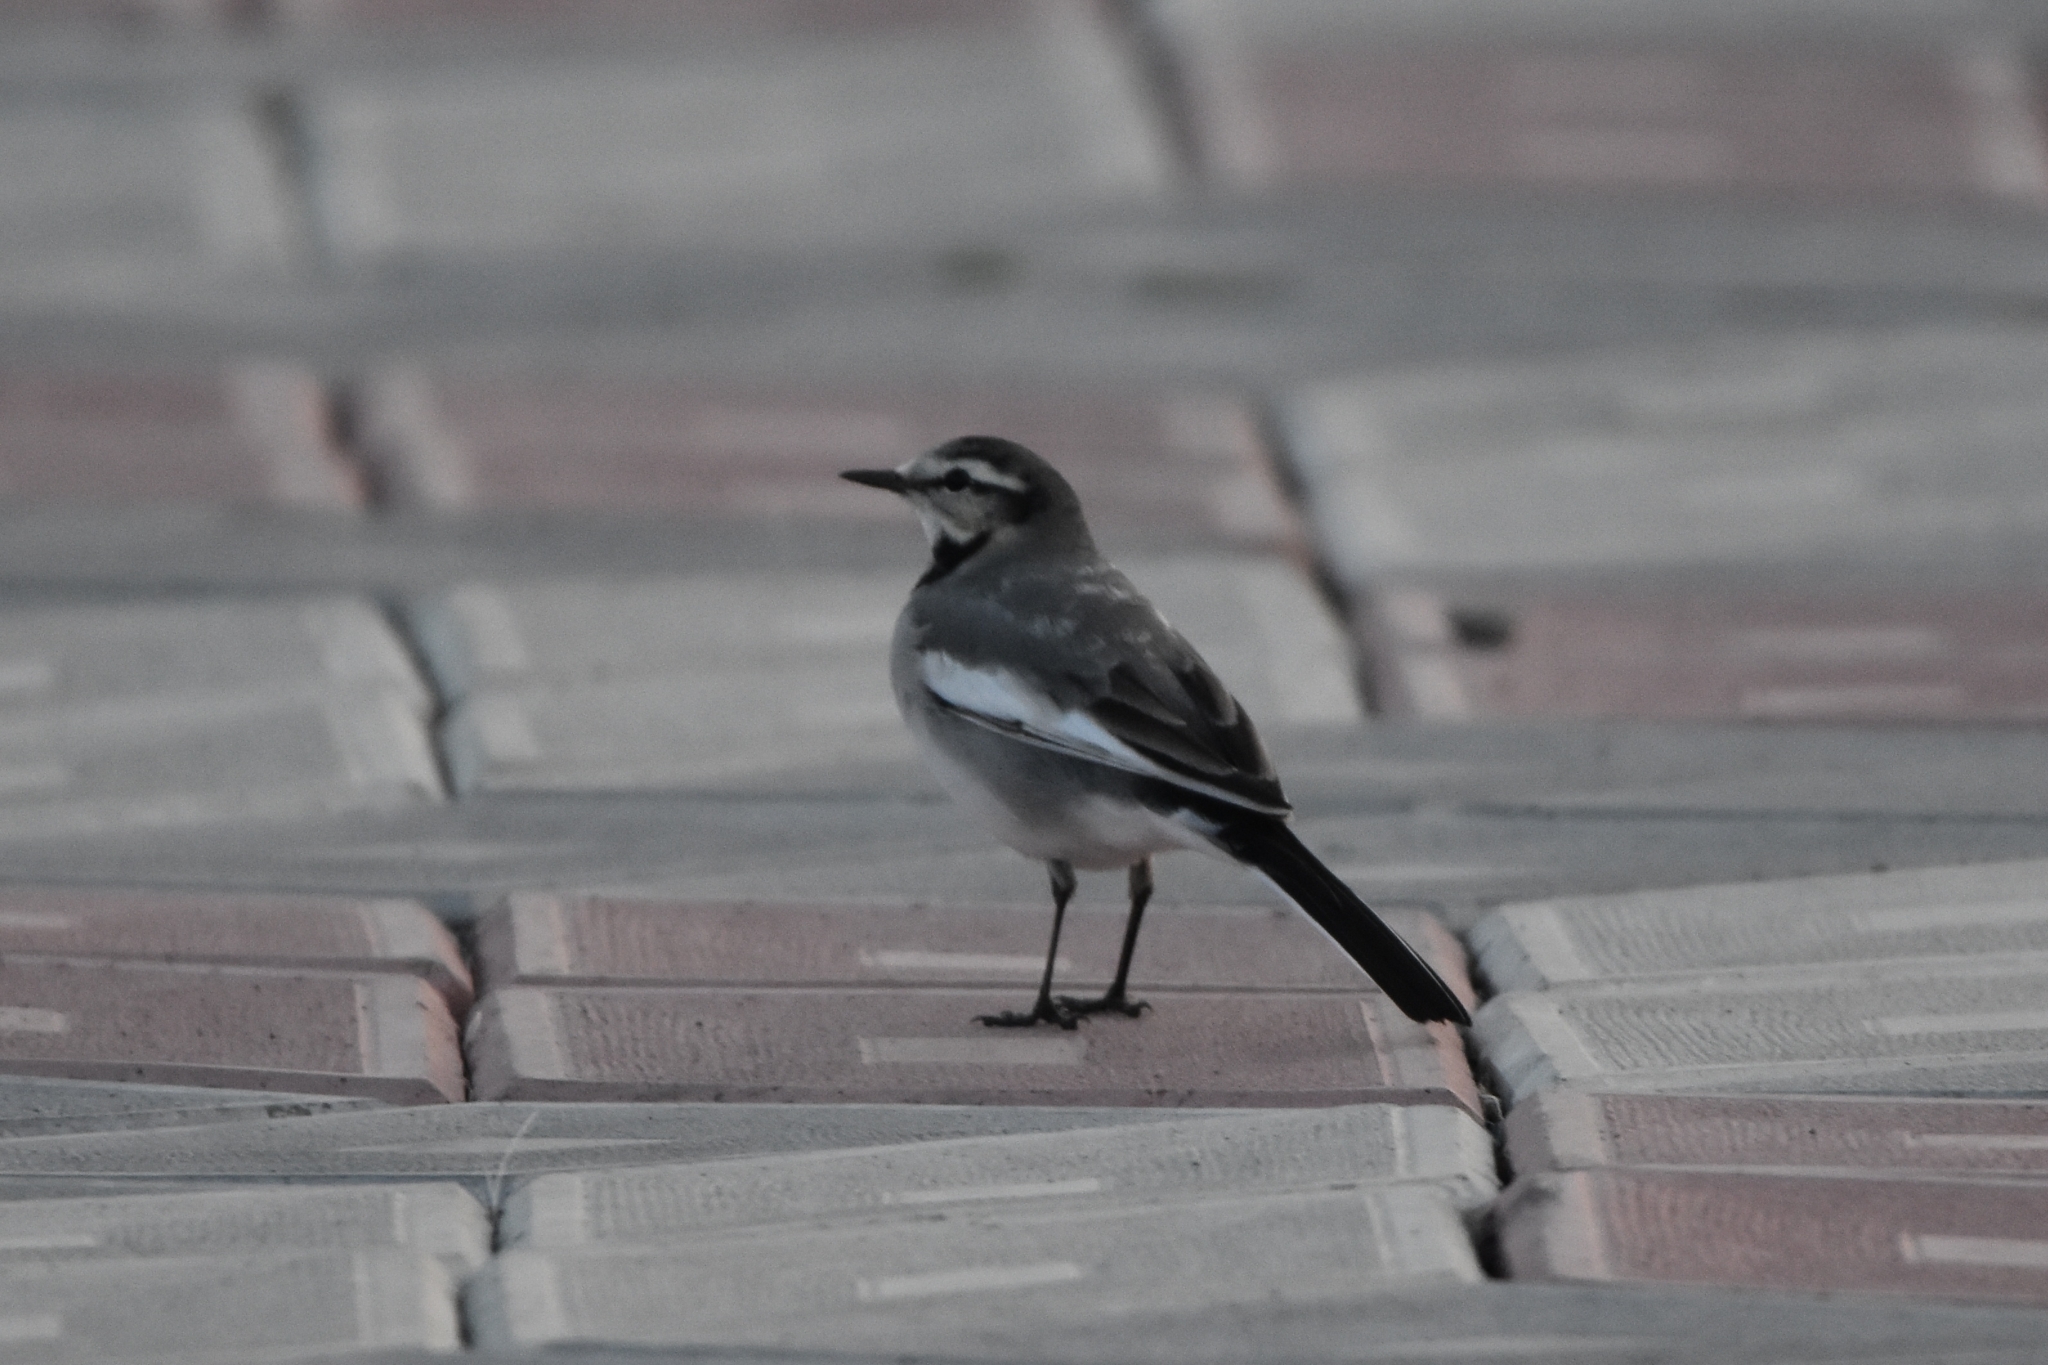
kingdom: Animalia
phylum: Chordata
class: Aves
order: Passeriformes
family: Motacillidae
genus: Motacilla
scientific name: Motacilla alba
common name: White wagtail
